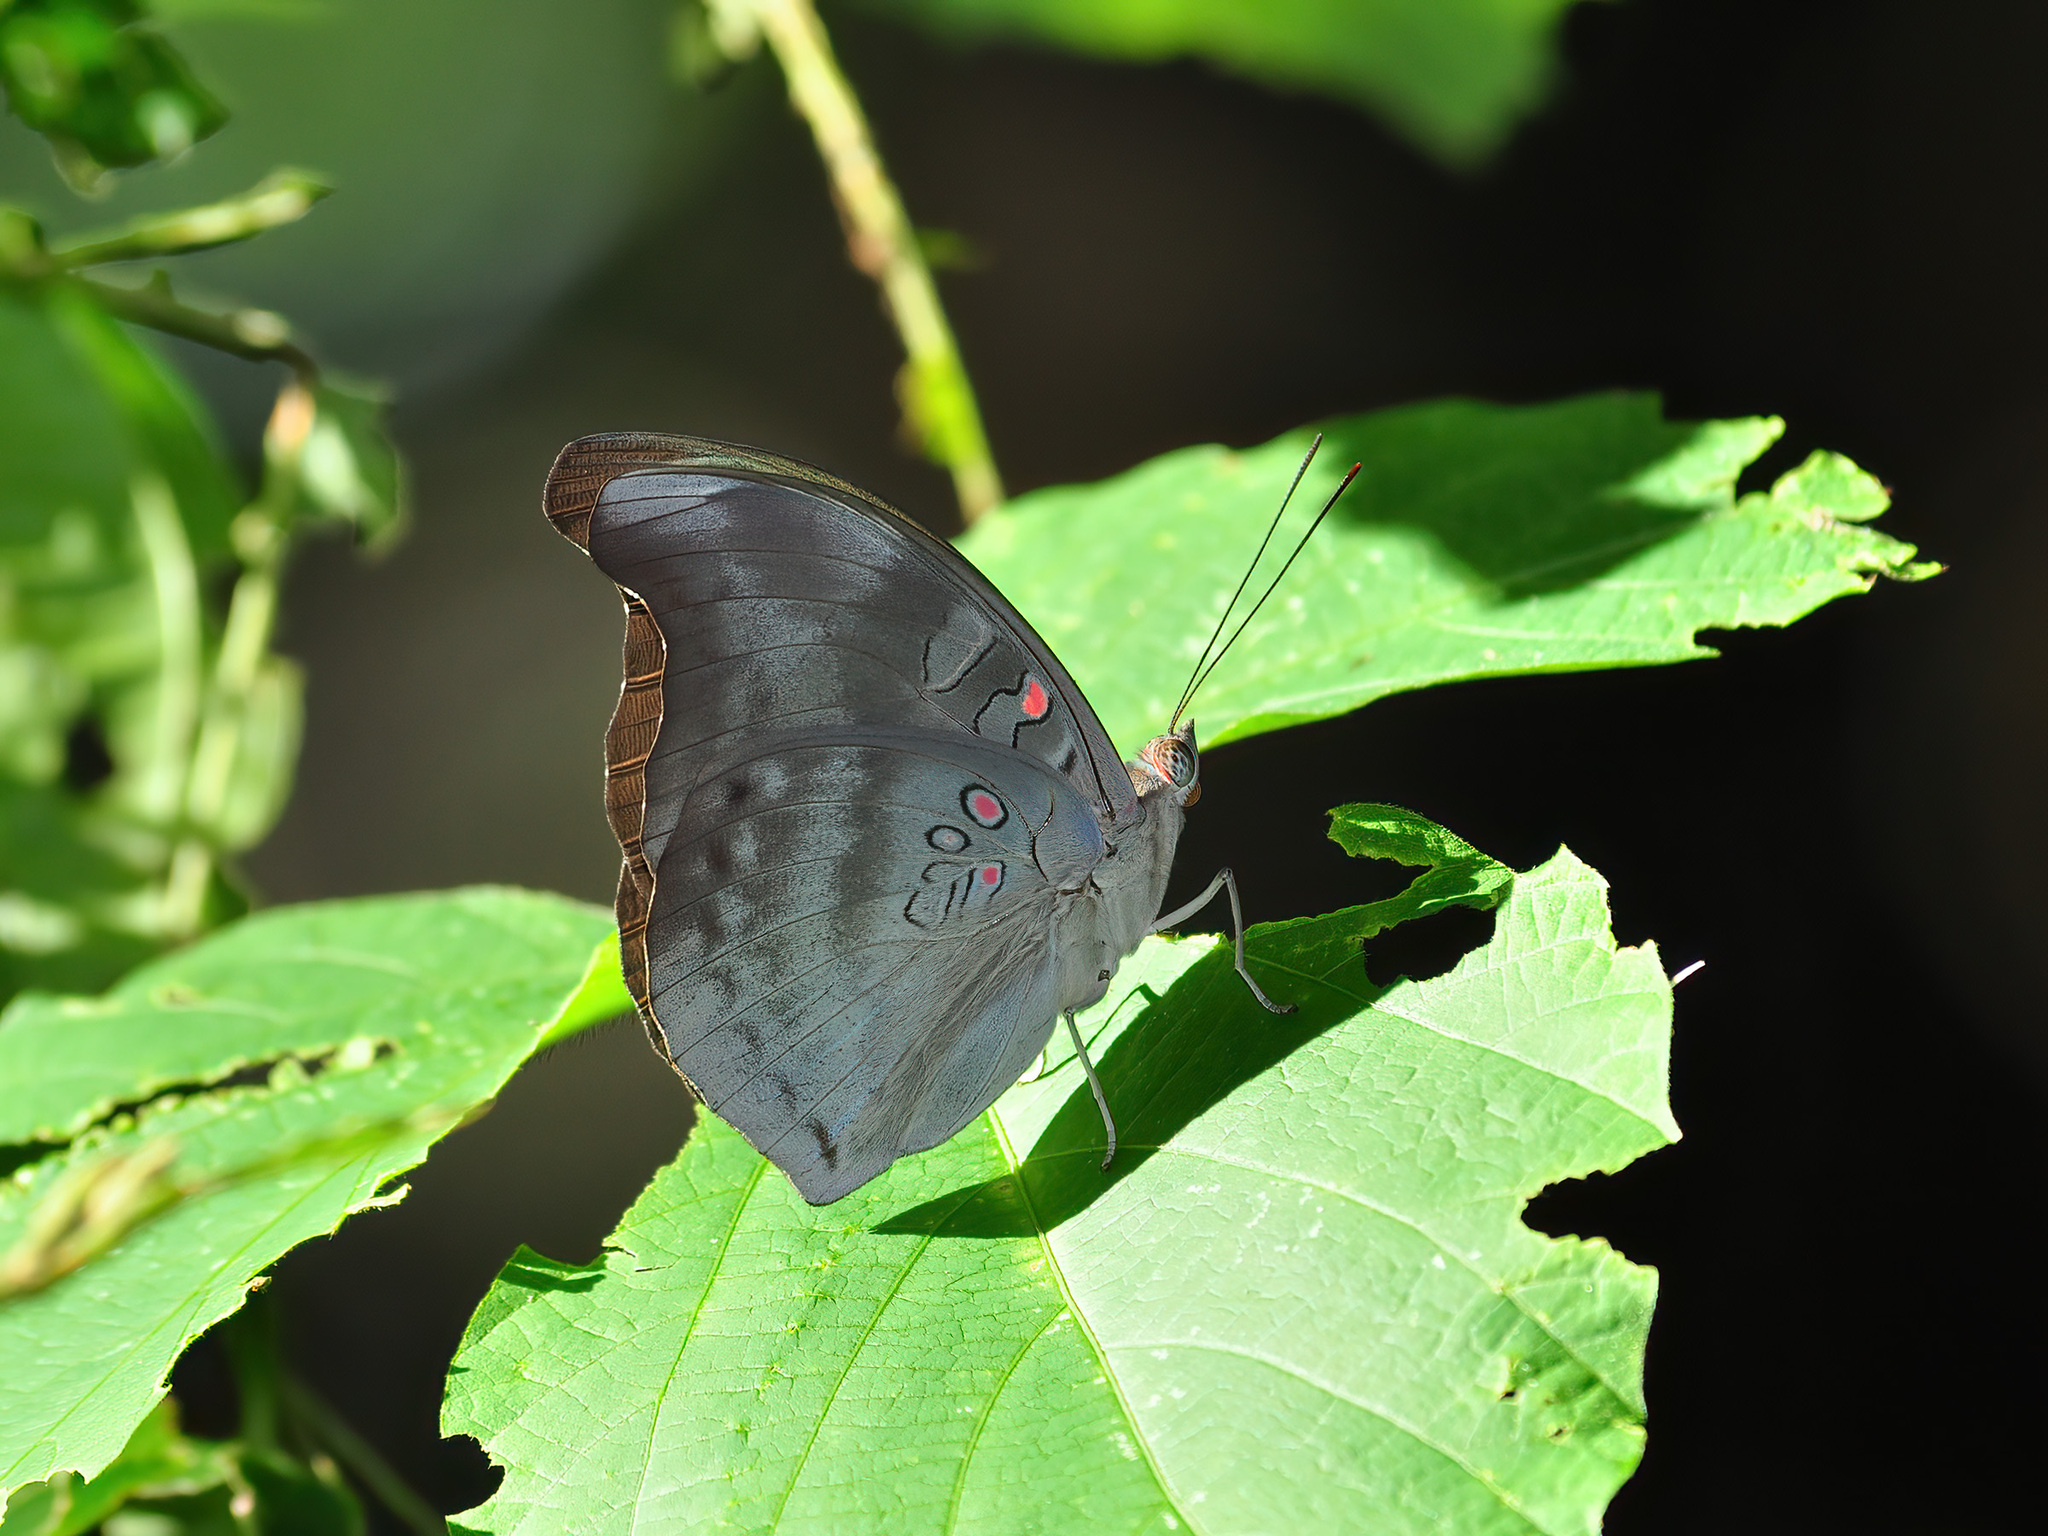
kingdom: Animalia
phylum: Arthropoda
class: Insecta
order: Lepidoptera
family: Nymphalidae
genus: Euthalia
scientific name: Euthalia Dophla evelina
